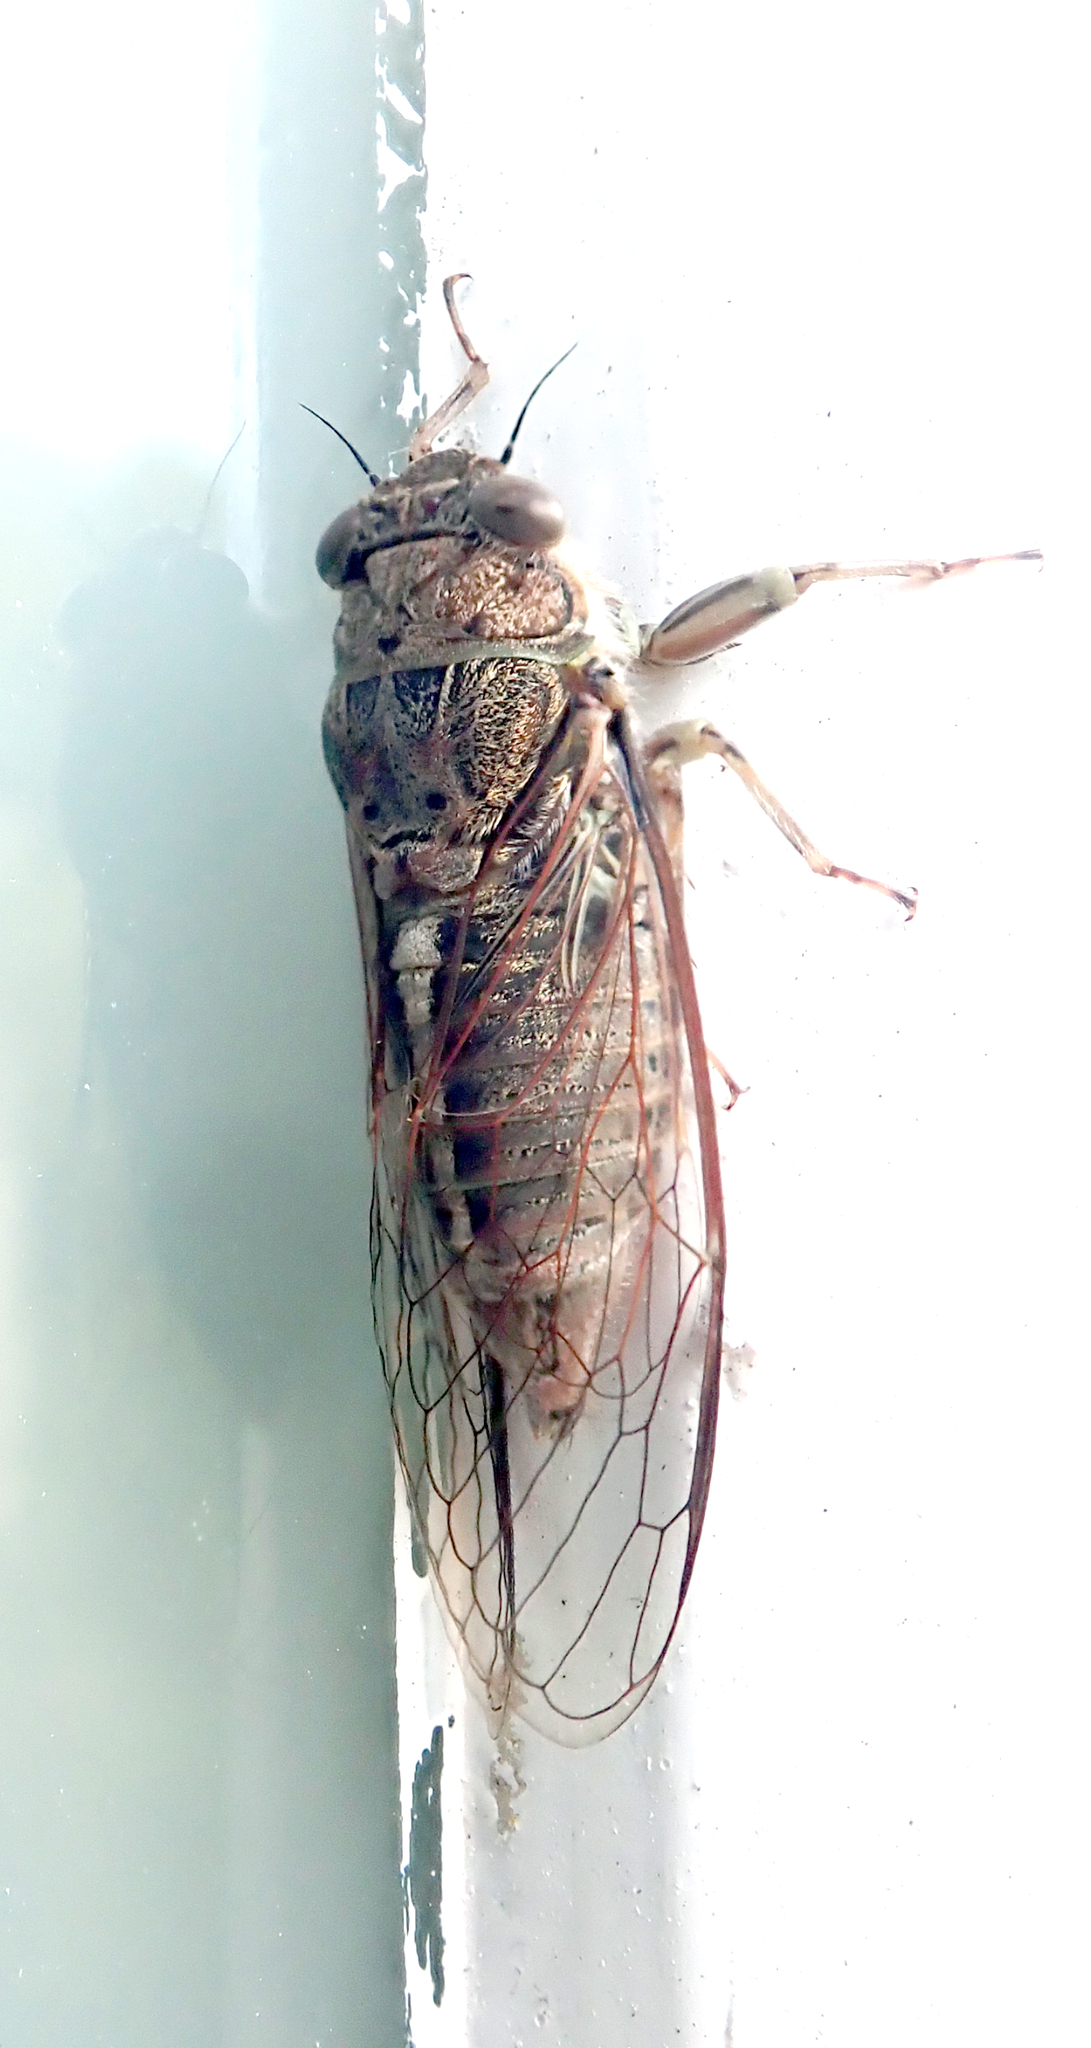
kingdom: Animalia
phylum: Arthropoda
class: Insecta
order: Hemiptera
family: Cicadidae
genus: Notopsalta
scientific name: Notopsalta sericea
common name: Clay bank cicada
